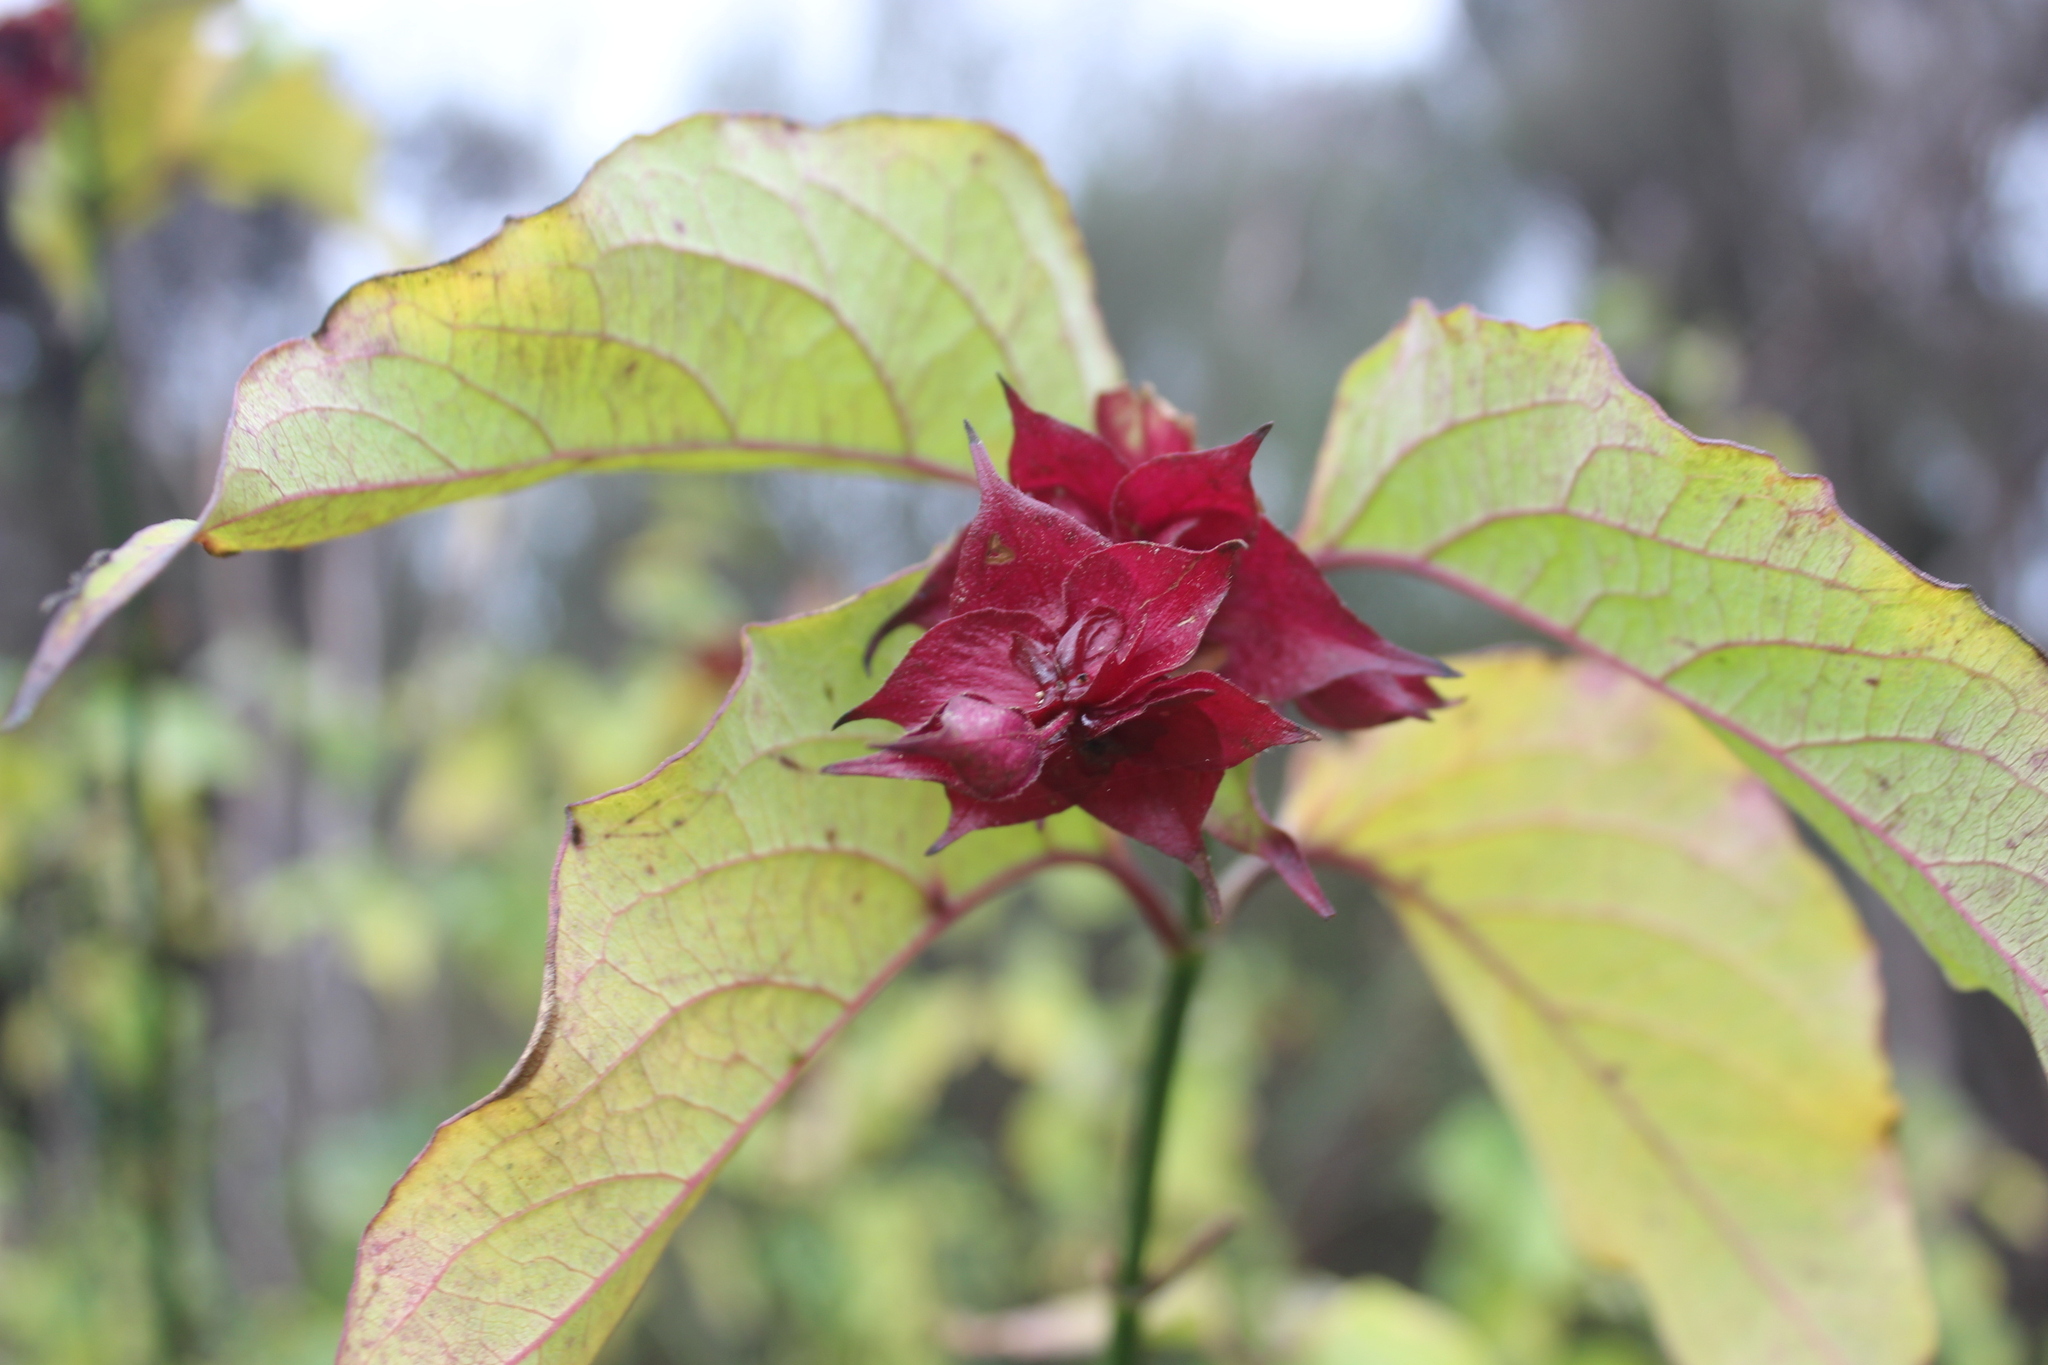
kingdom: Plantae
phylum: Tracheophyta
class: Magnoliopsida
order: Dipsacales
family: Caprifoliaceae
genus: Leycesteria
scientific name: Leycesteria formosa
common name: Himalayan honeysuckle
